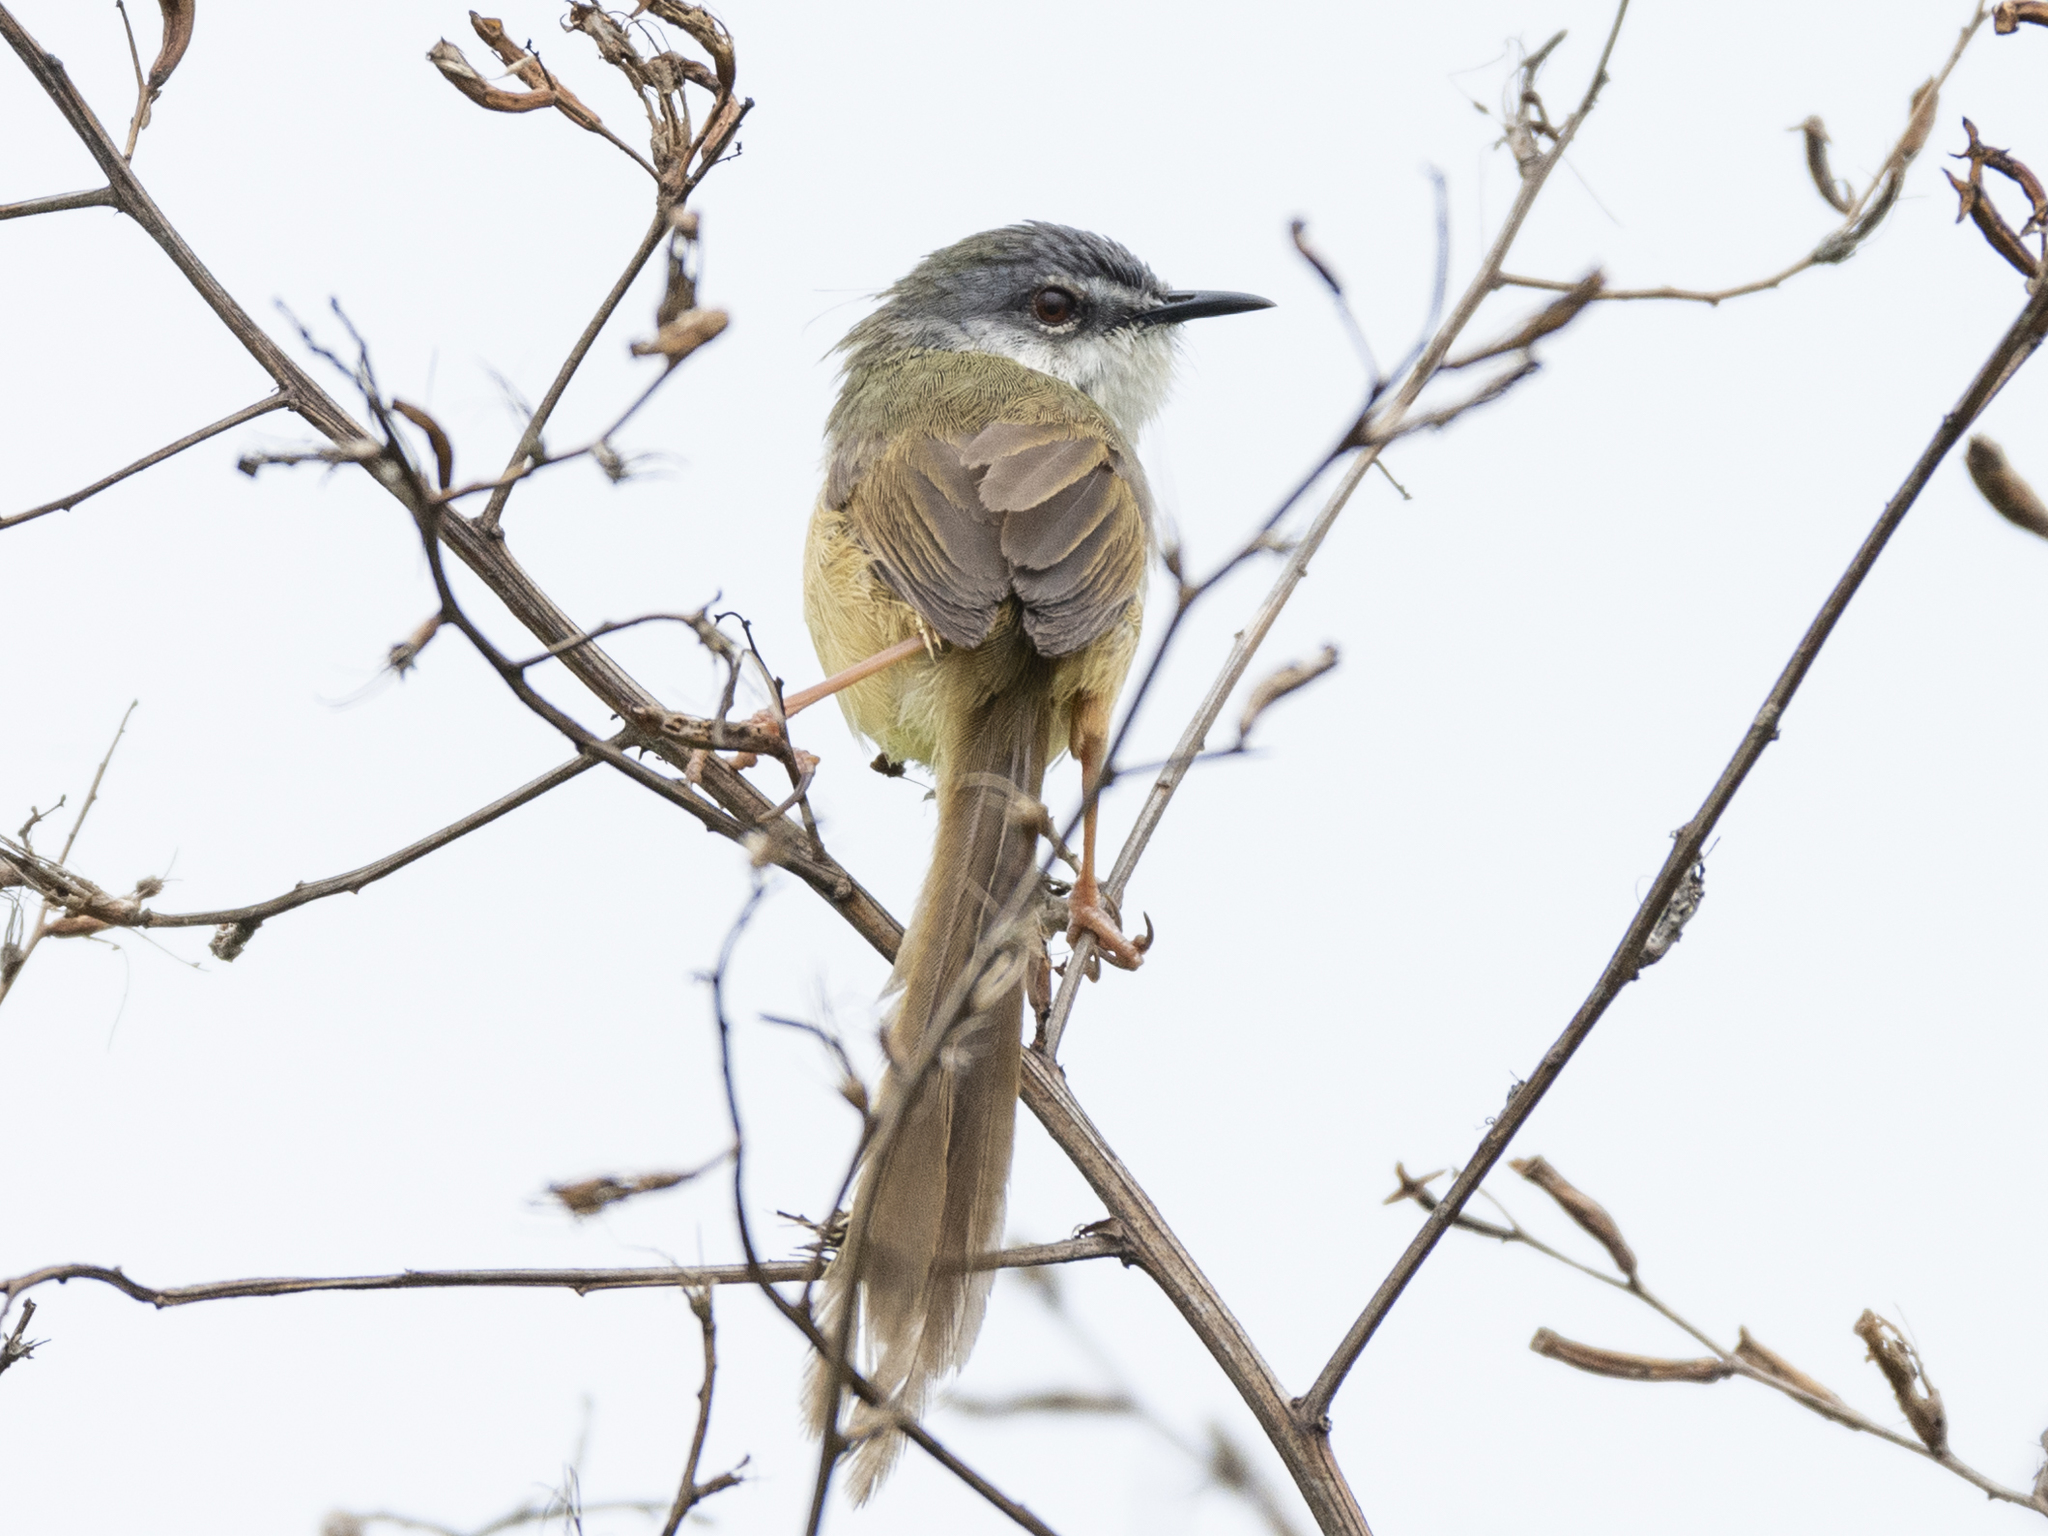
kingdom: Animalia
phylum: Chordata
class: Aves
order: Passeriformes
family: Cisticolidae
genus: Prinia
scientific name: Prinia flaviventris
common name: Yellow-bellied prinia
